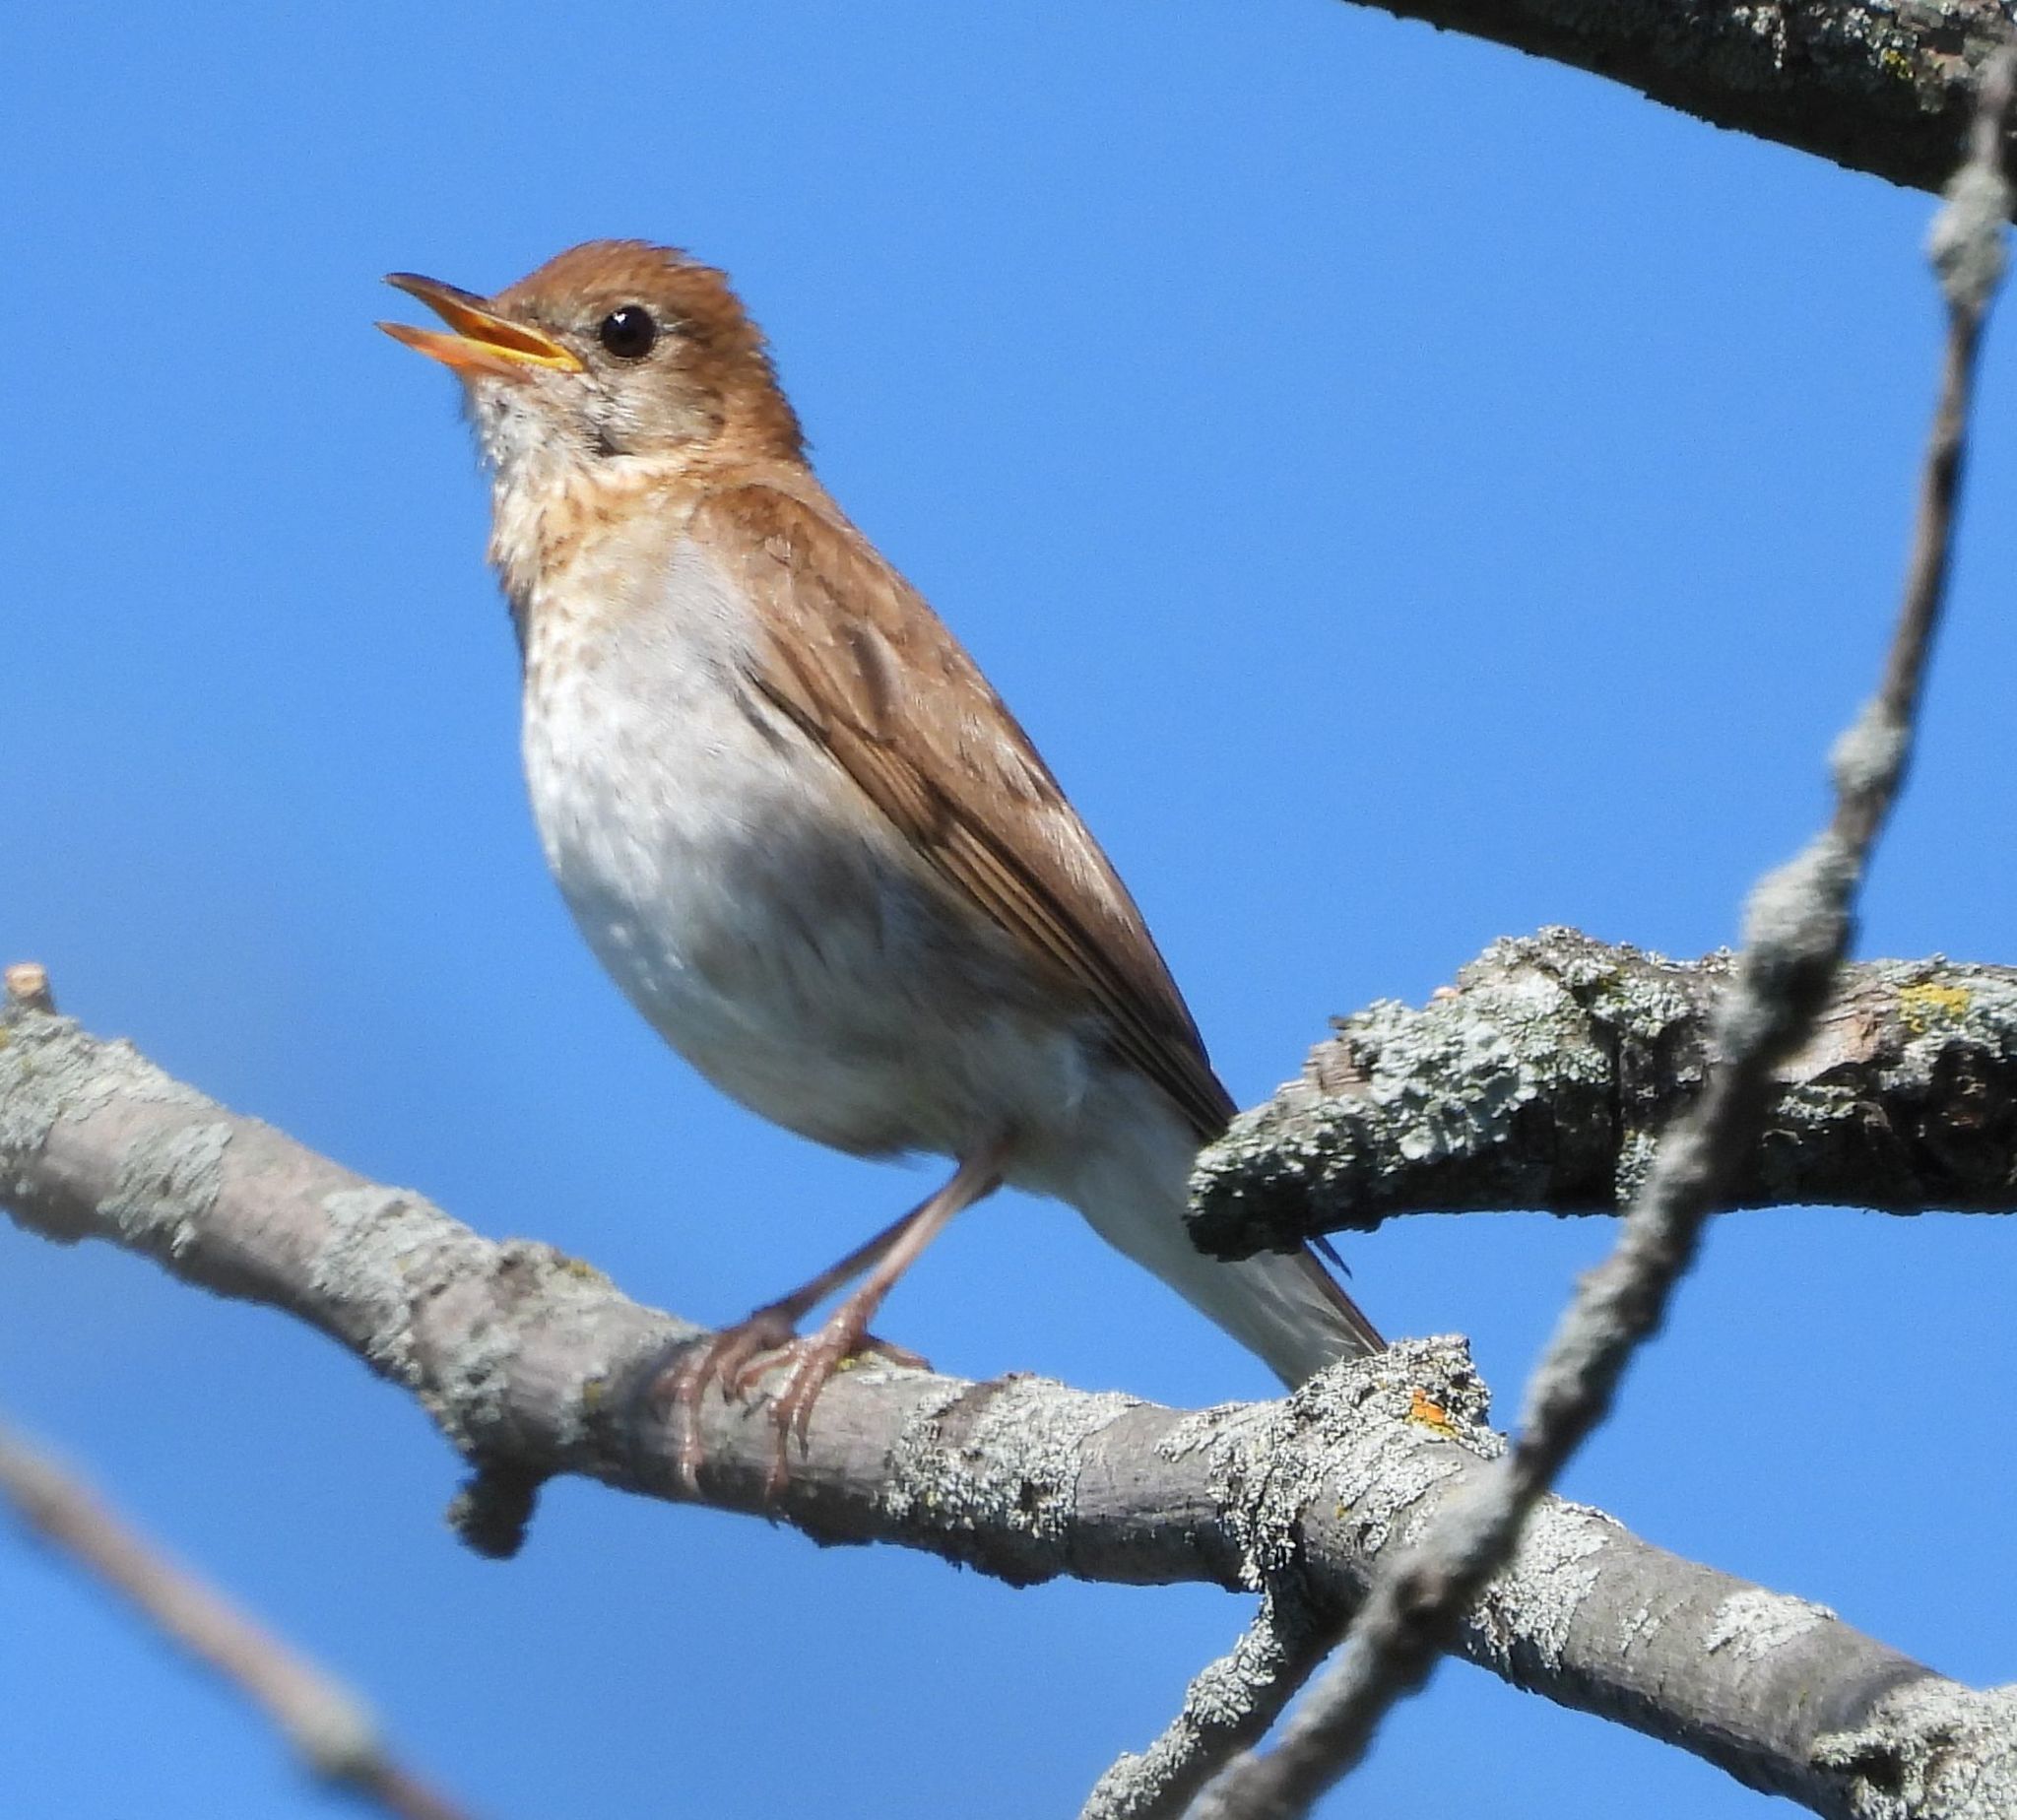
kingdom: Animalia
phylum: Chordata
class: Aves
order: Passeriformes
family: Turdidae
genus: Catharus
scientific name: Catharus fuscescens
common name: Veery
